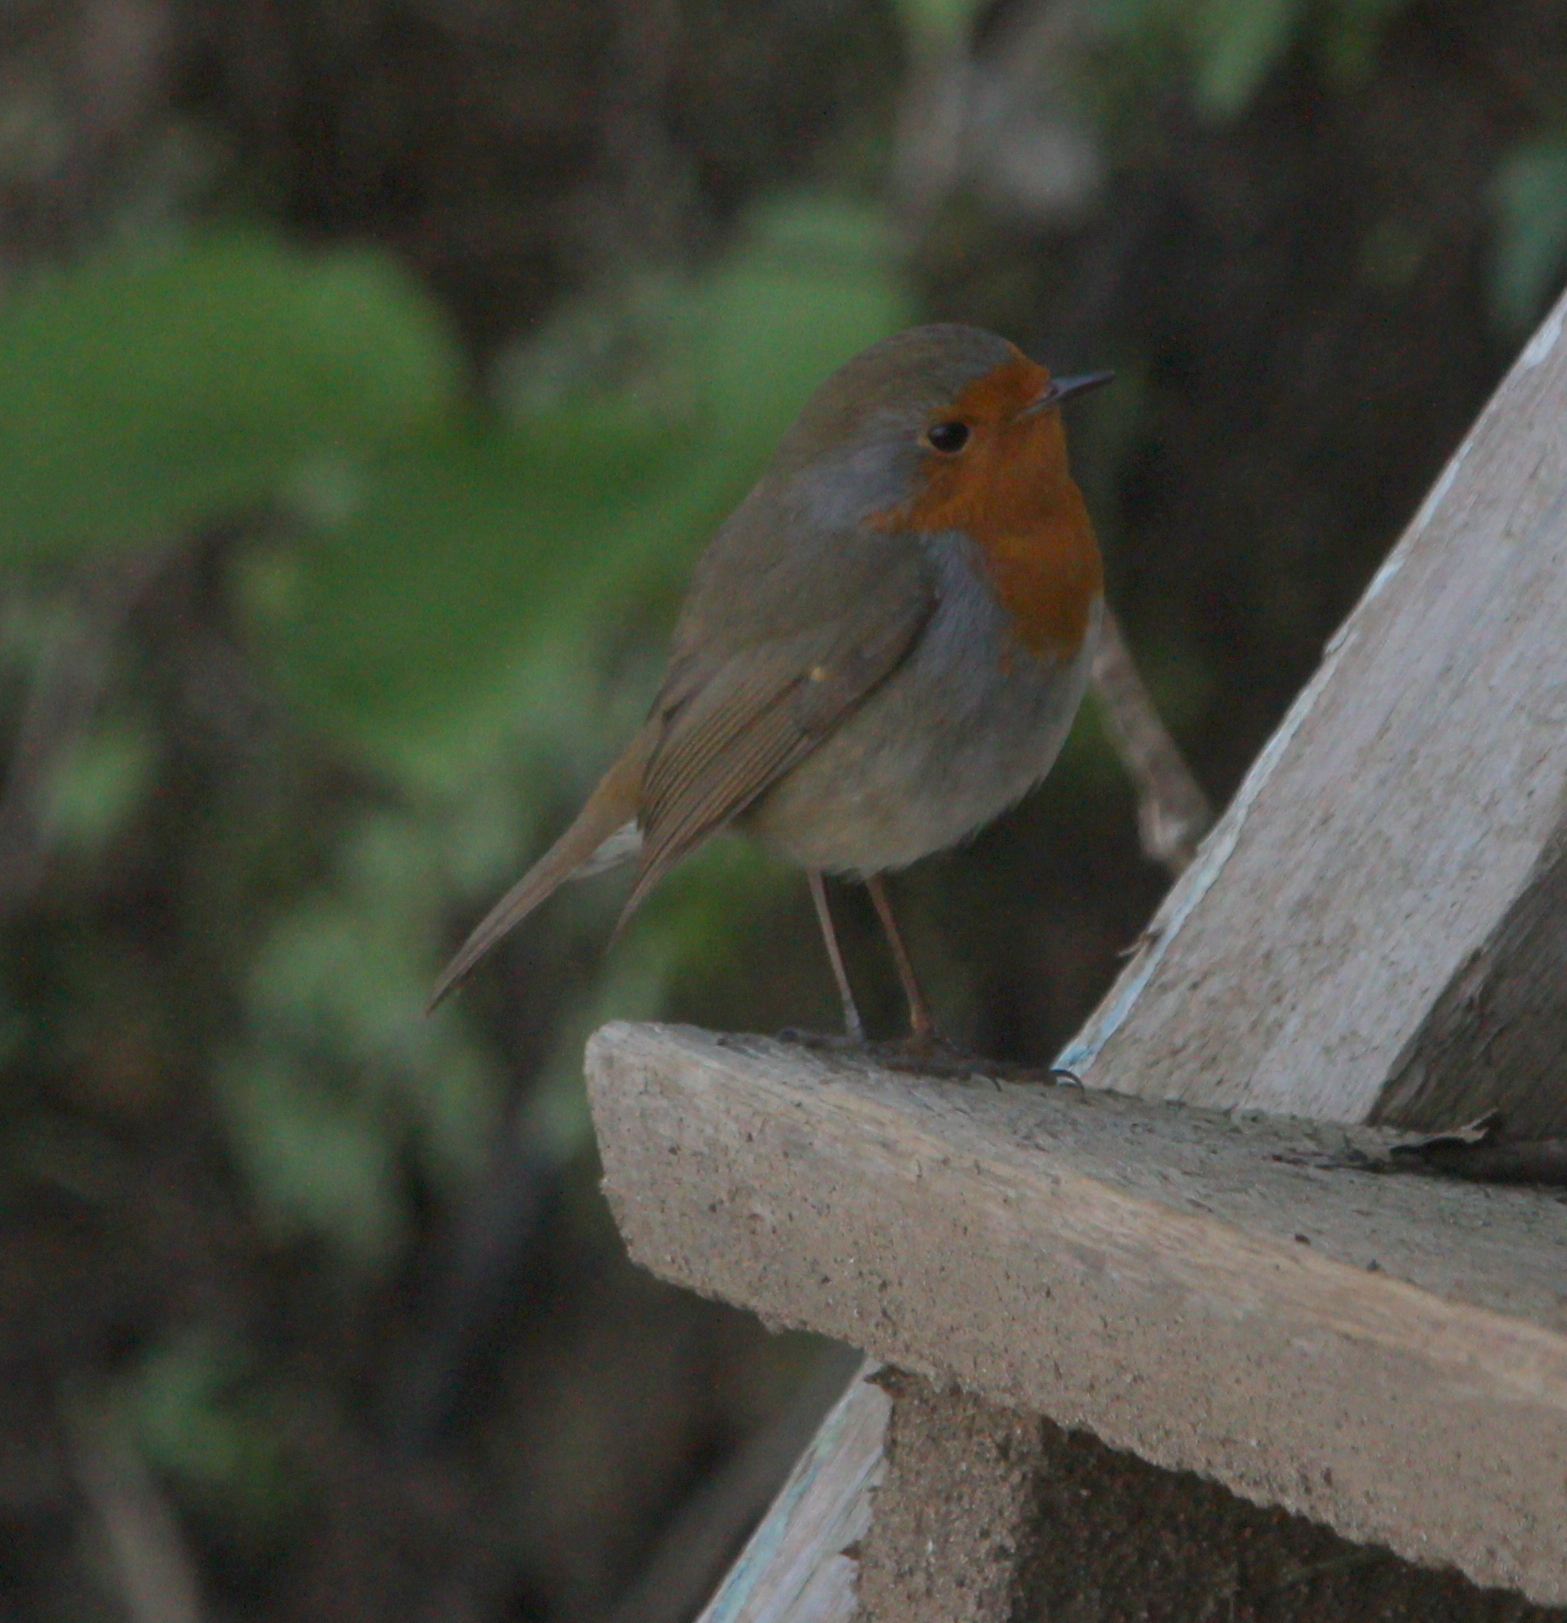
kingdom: Animalia
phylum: Chordata
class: Aves
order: Passeriformes
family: Muscicapidae
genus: Erithacus
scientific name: Erithacus rubecula
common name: European robin
